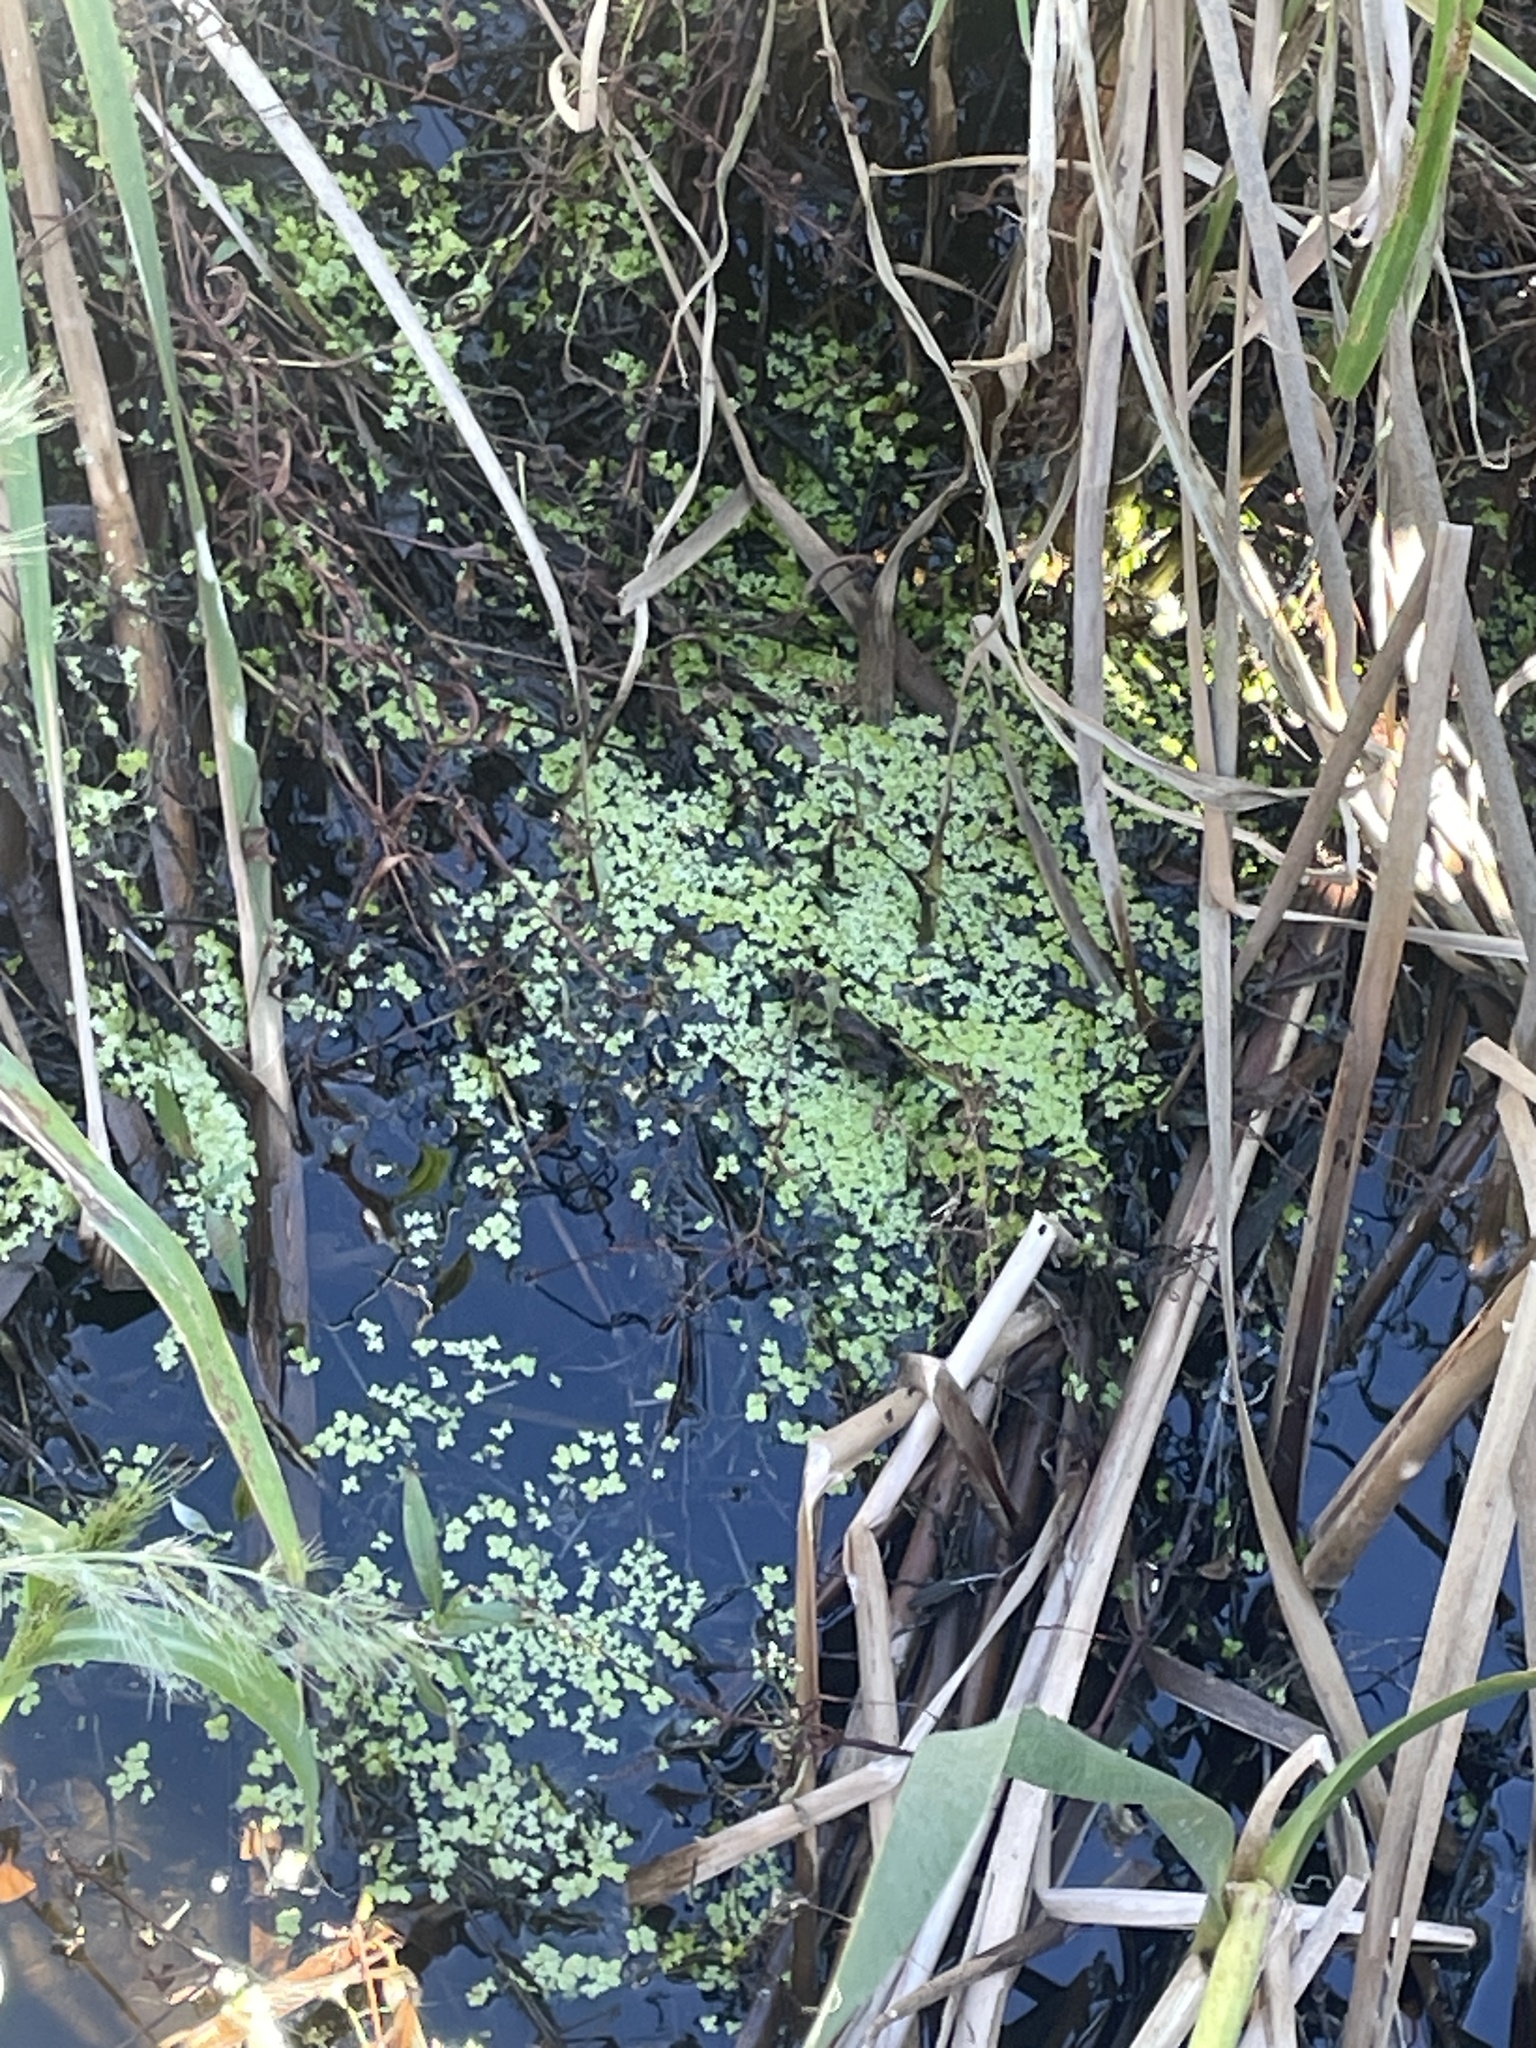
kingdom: Plantae
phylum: Tracheophyta
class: Liliopsida
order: Alismatales
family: Araceae
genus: Lemna
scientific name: Lemna minor
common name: Common duckweed
